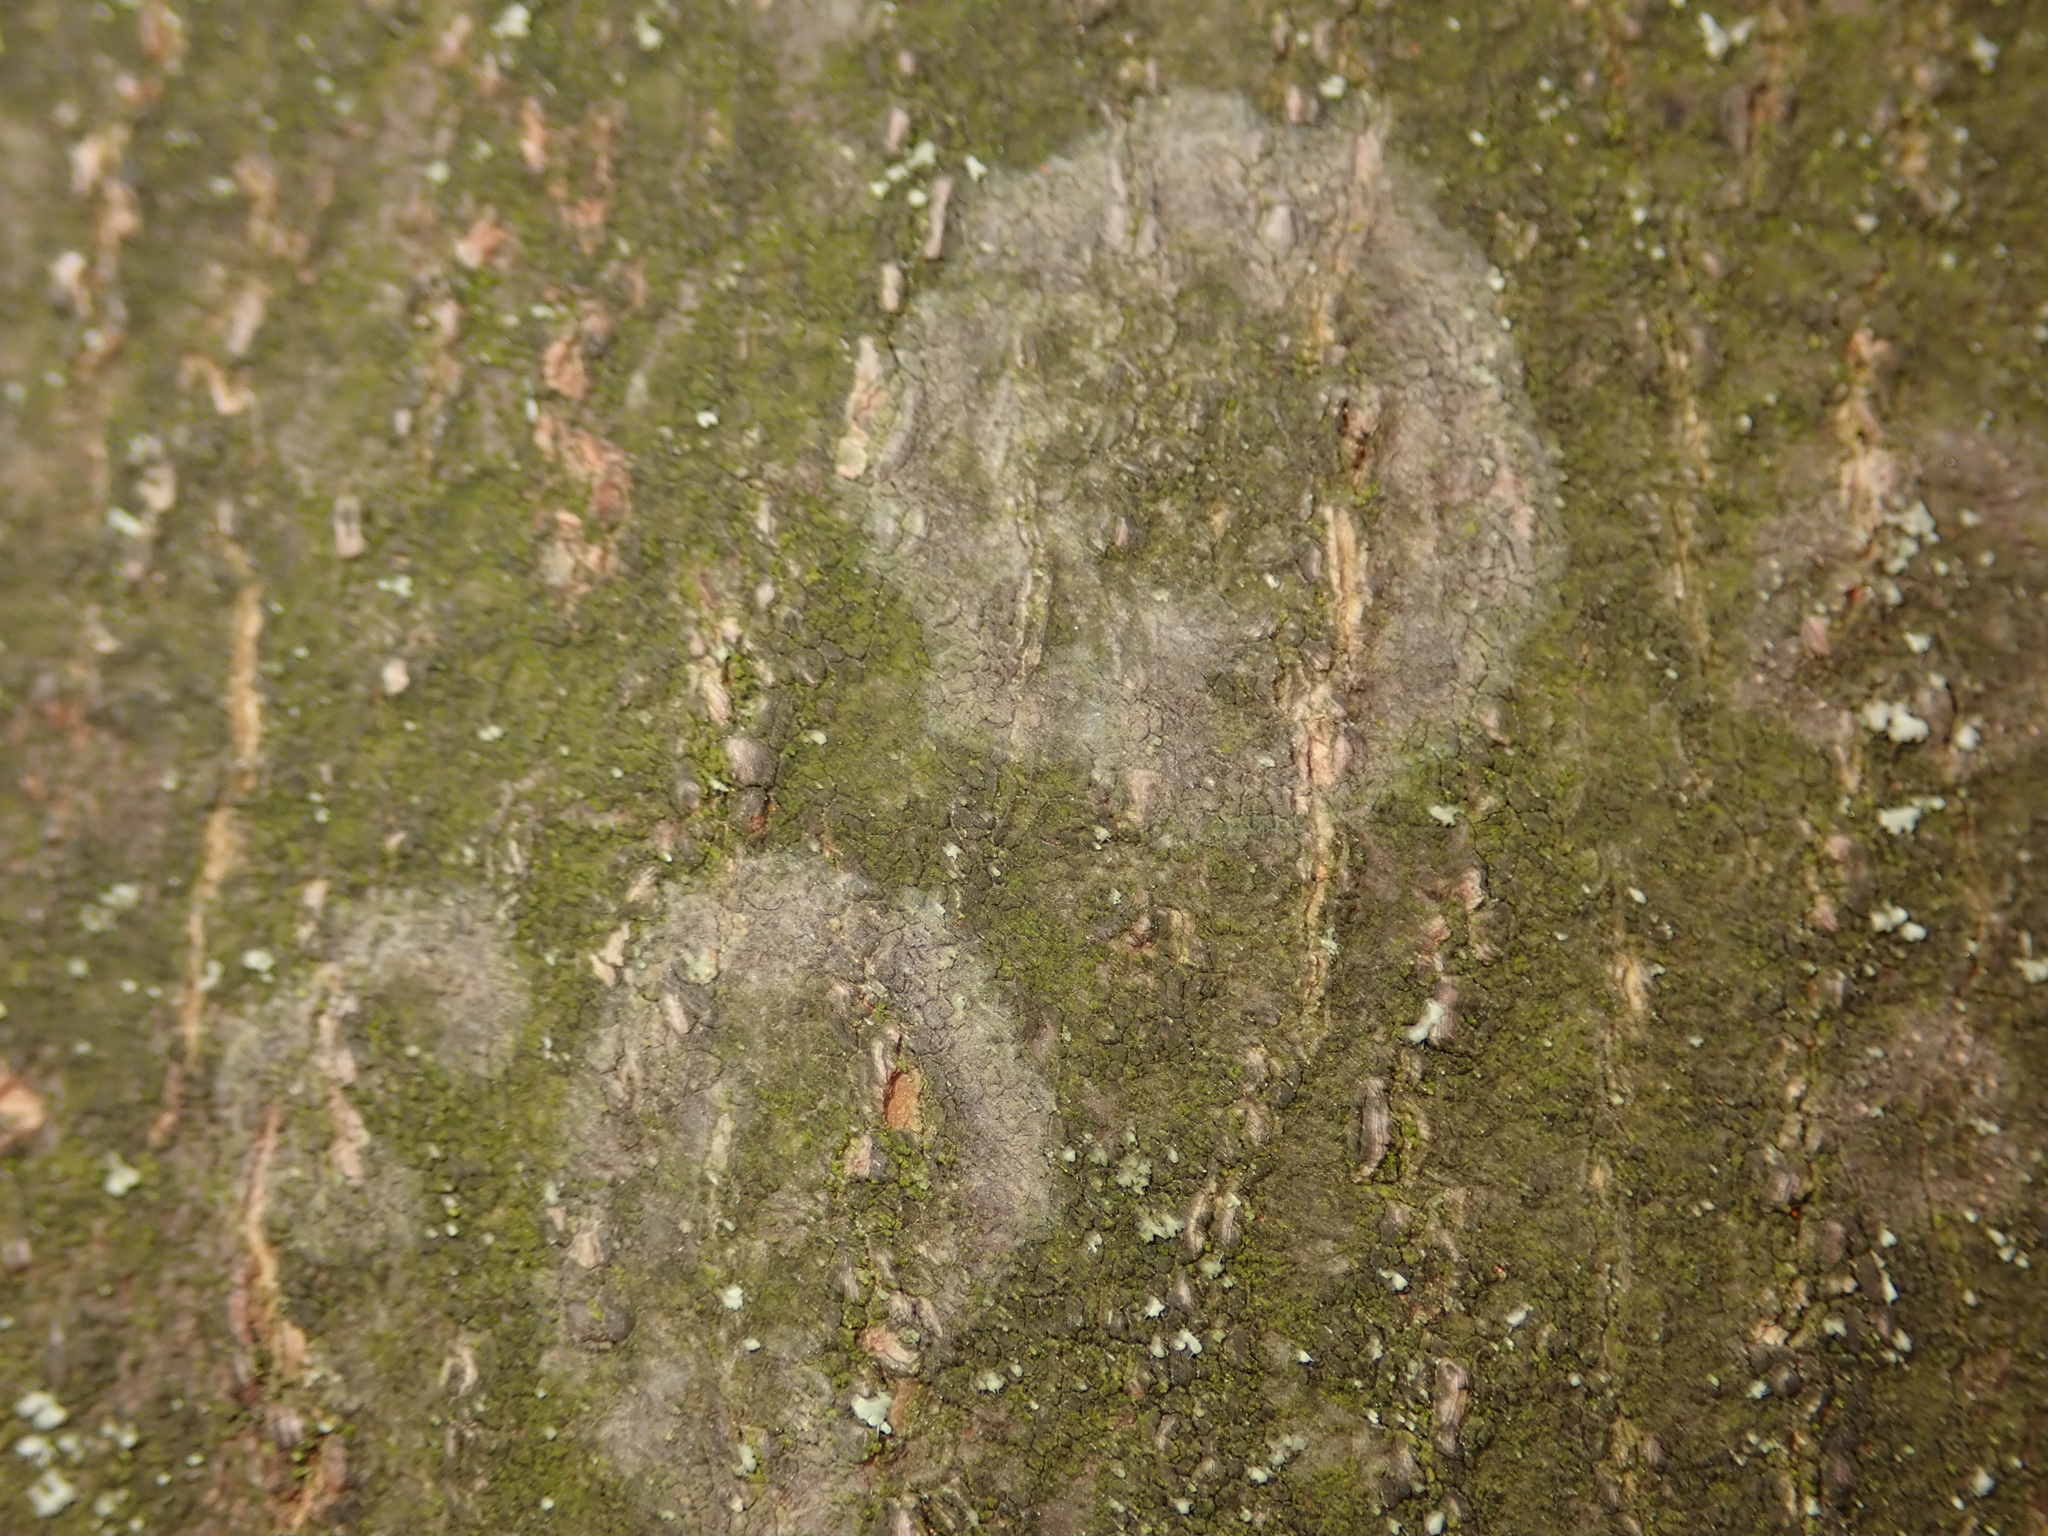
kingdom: Fungi
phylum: Basidiomycota
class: Agaricomycetes
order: Atheliales
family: Atheliaceae
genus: Athelia
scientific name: Athelia arachnoidea
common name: Candelabra duster
